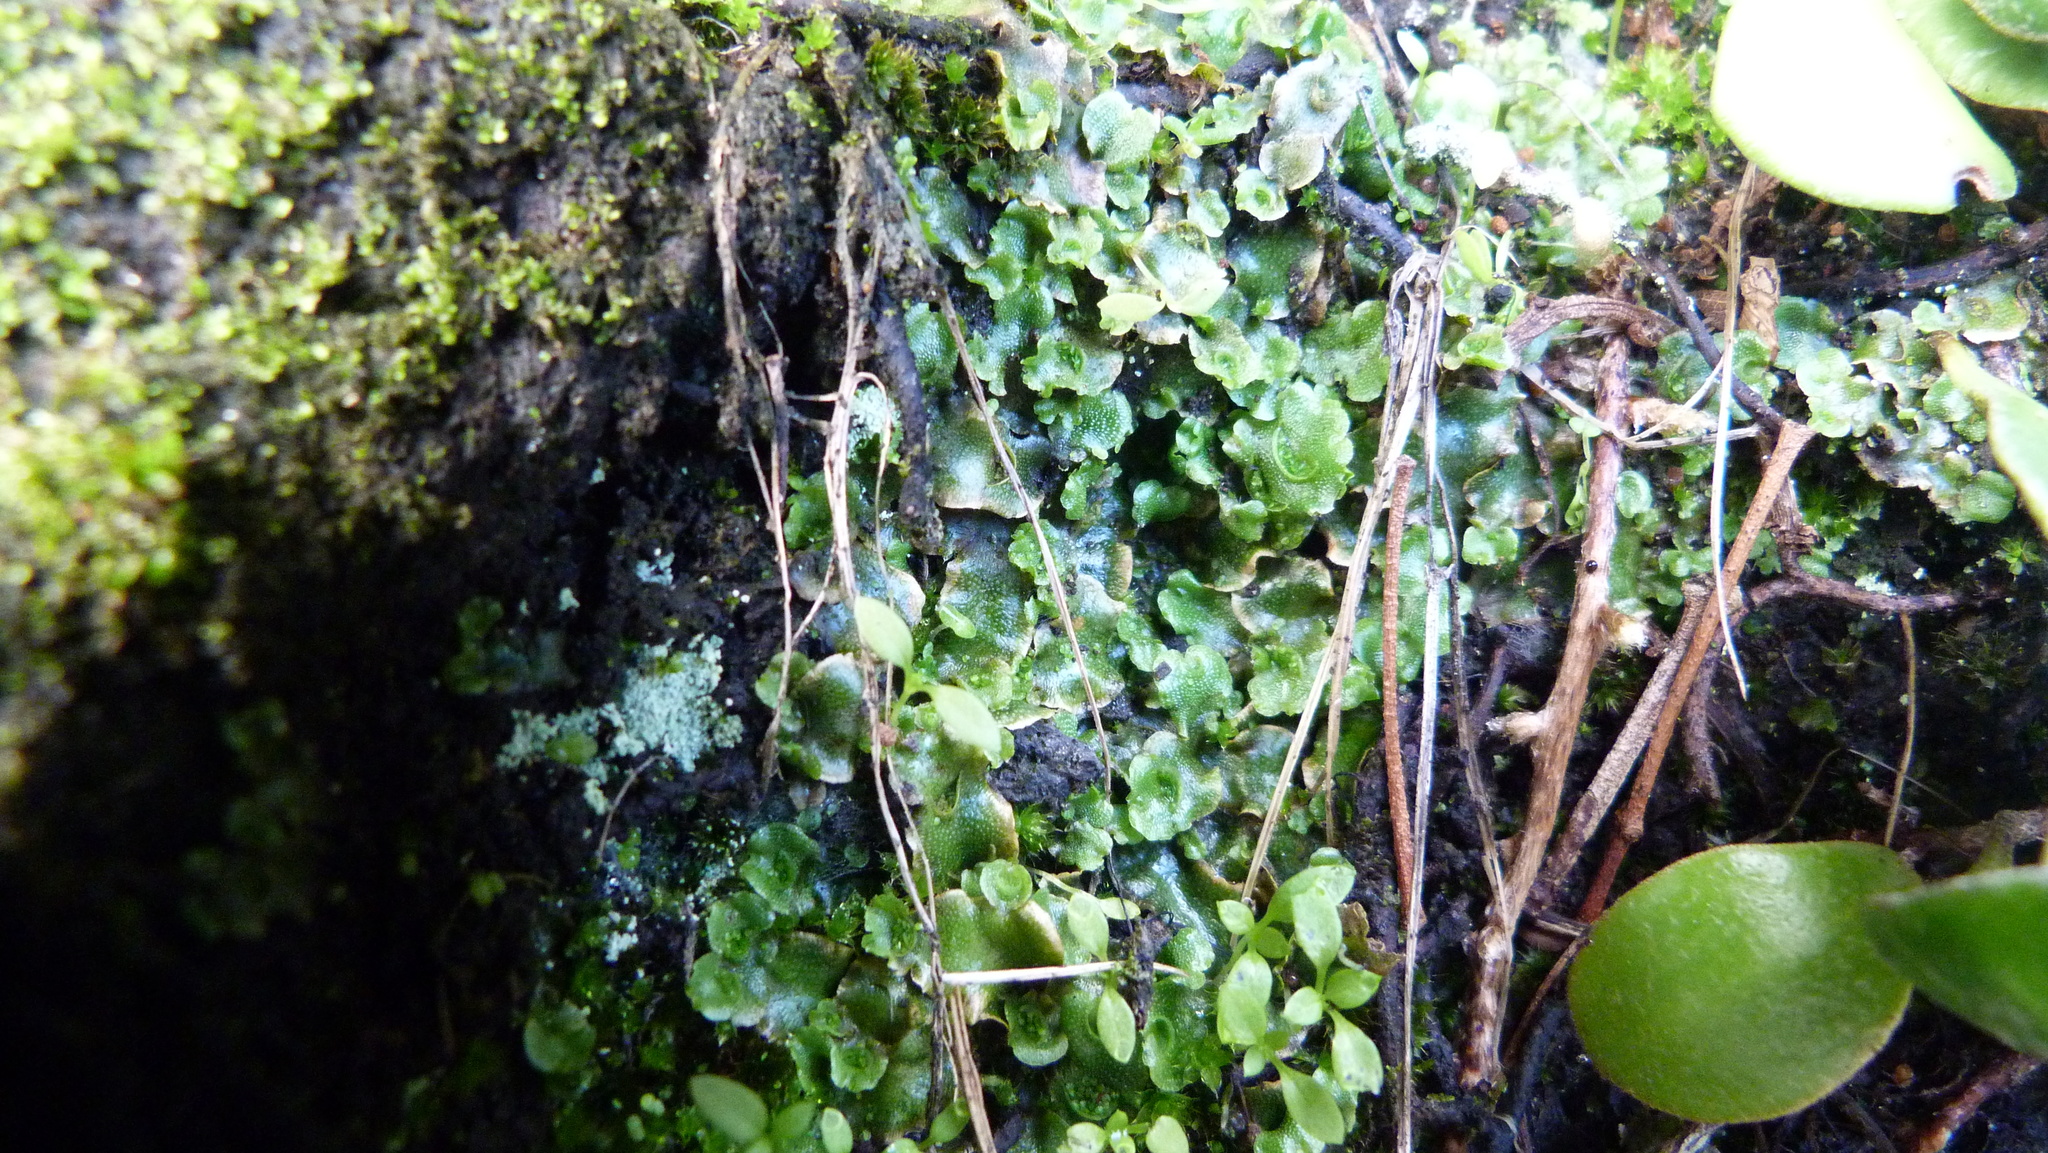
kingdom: Plantae
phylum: Marchantiophyta
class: Marchantiopsida
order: Lunulariales
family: Lunulariaceae
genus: Lunularia
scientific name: Lunularia cruciata
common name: Crescent-cup liverwort
